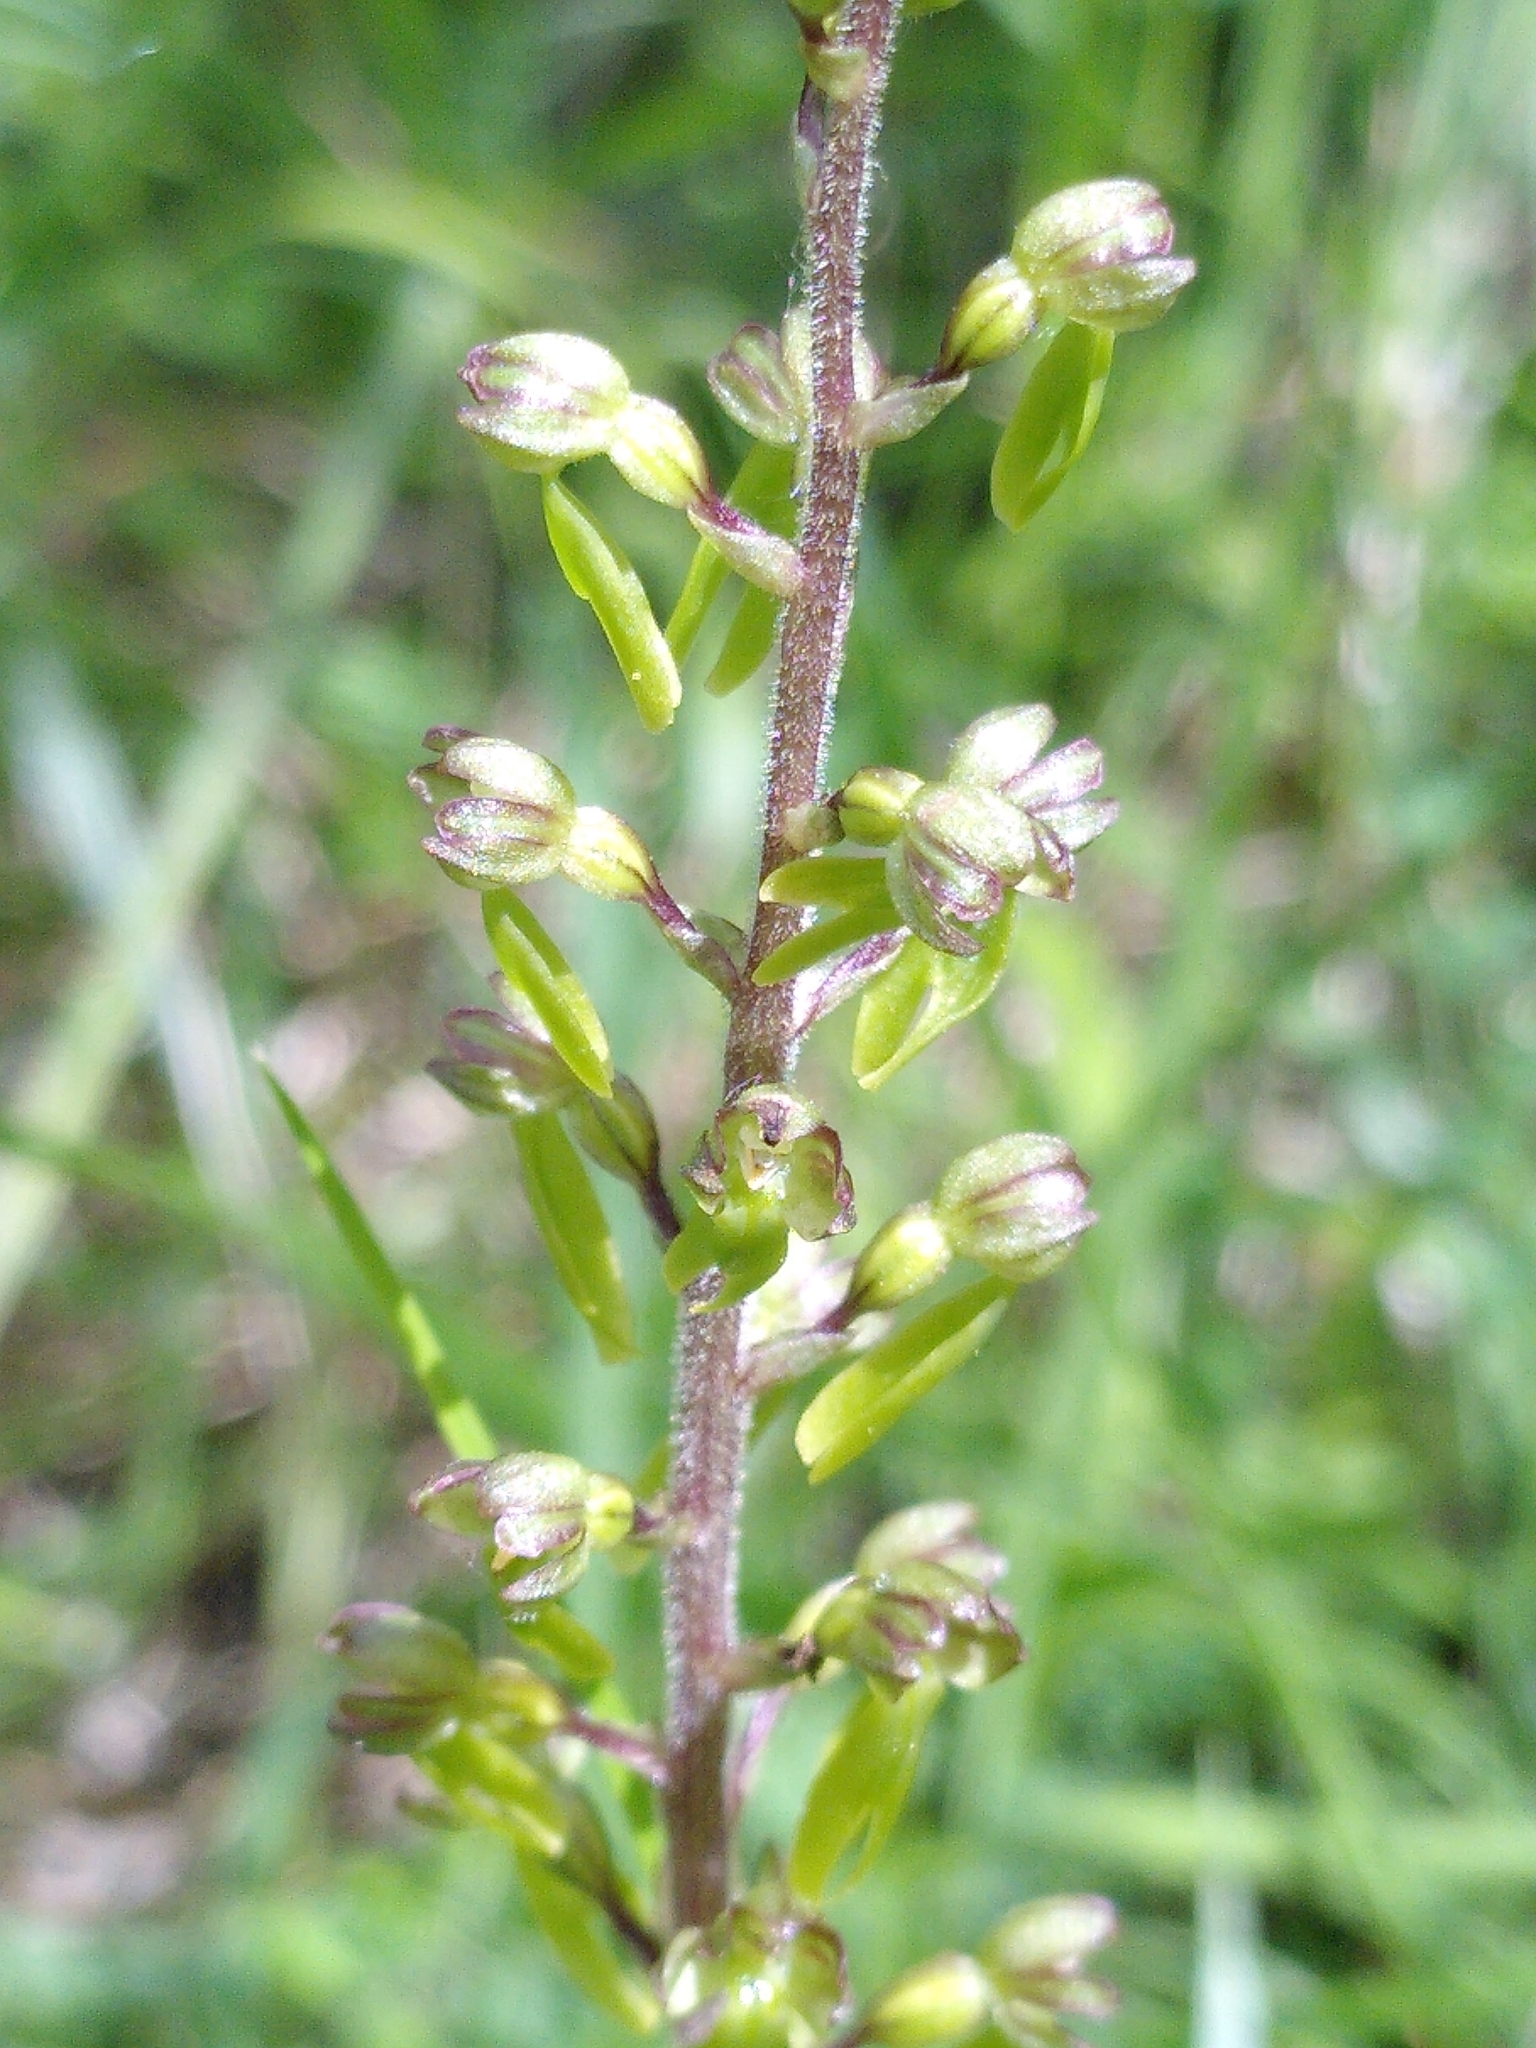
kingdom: Plantae
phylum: Tracheophyta
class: Liliopsida
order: Asparagales
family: Orchidaceae
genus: Neottia
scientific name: Neottia ovata
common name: Common twayblade
